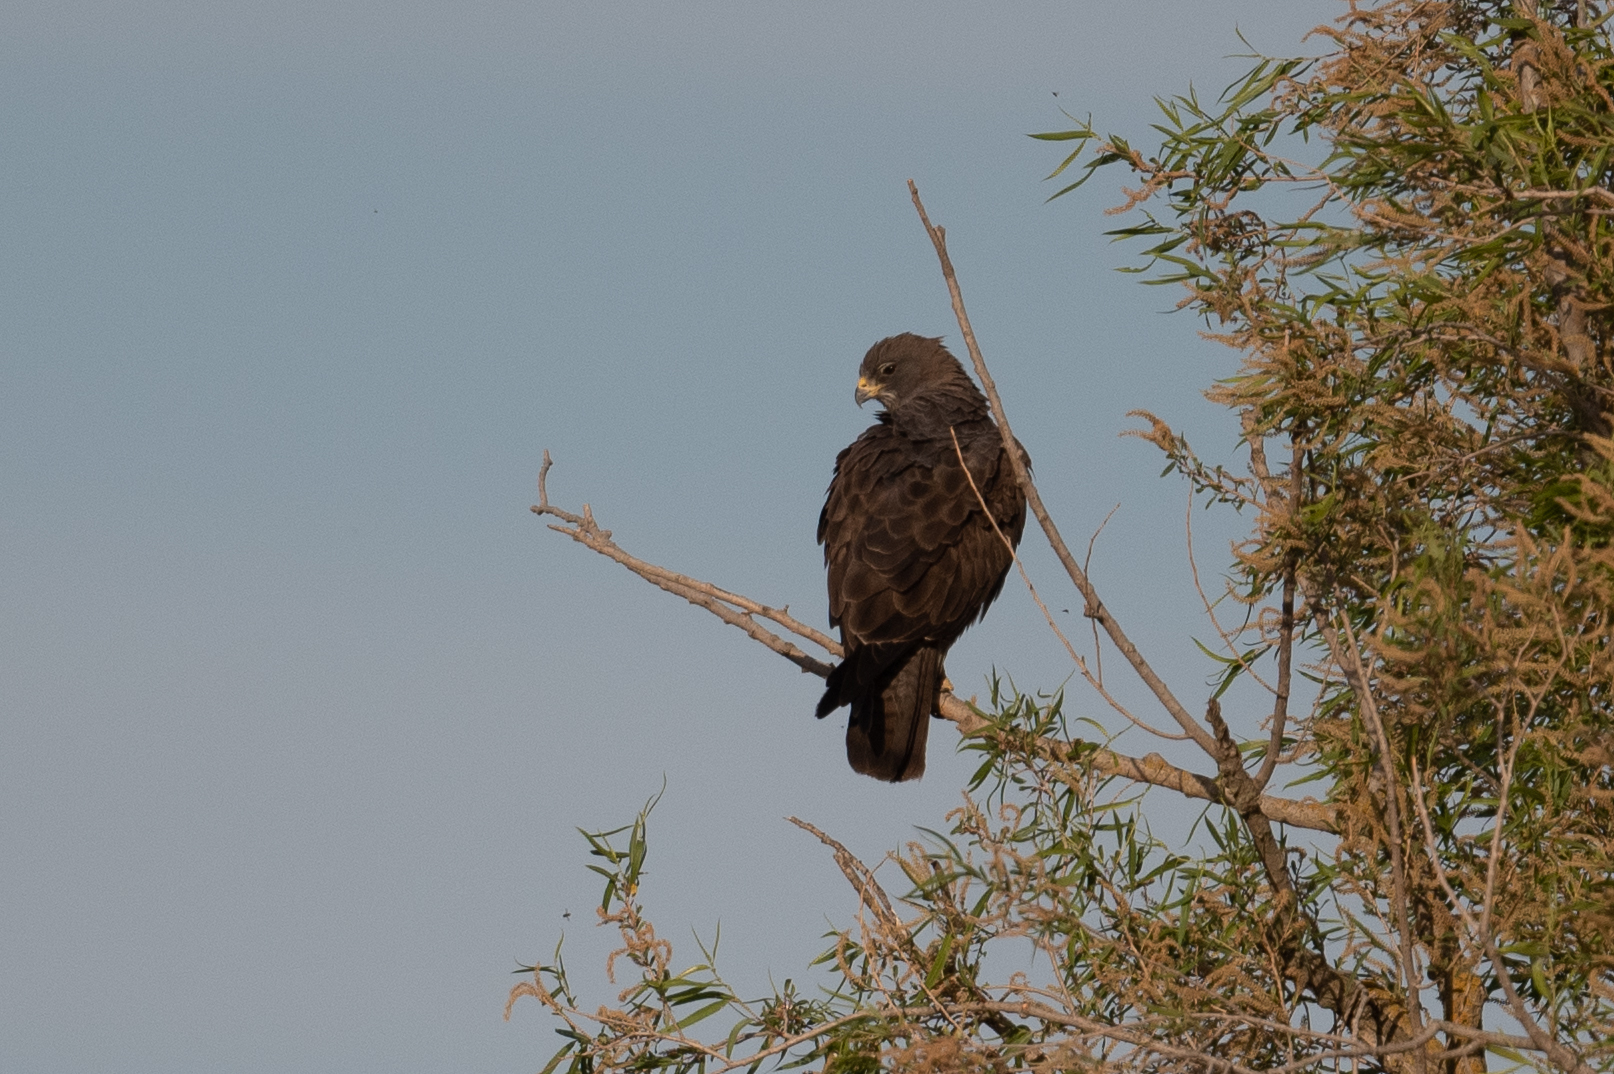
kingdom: Animalia
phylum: Chordata
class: Aves
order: Accipitriformes
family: Accipitridae
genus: Buteo
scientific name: Buteo swainsoni
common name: Swainson's hawk
